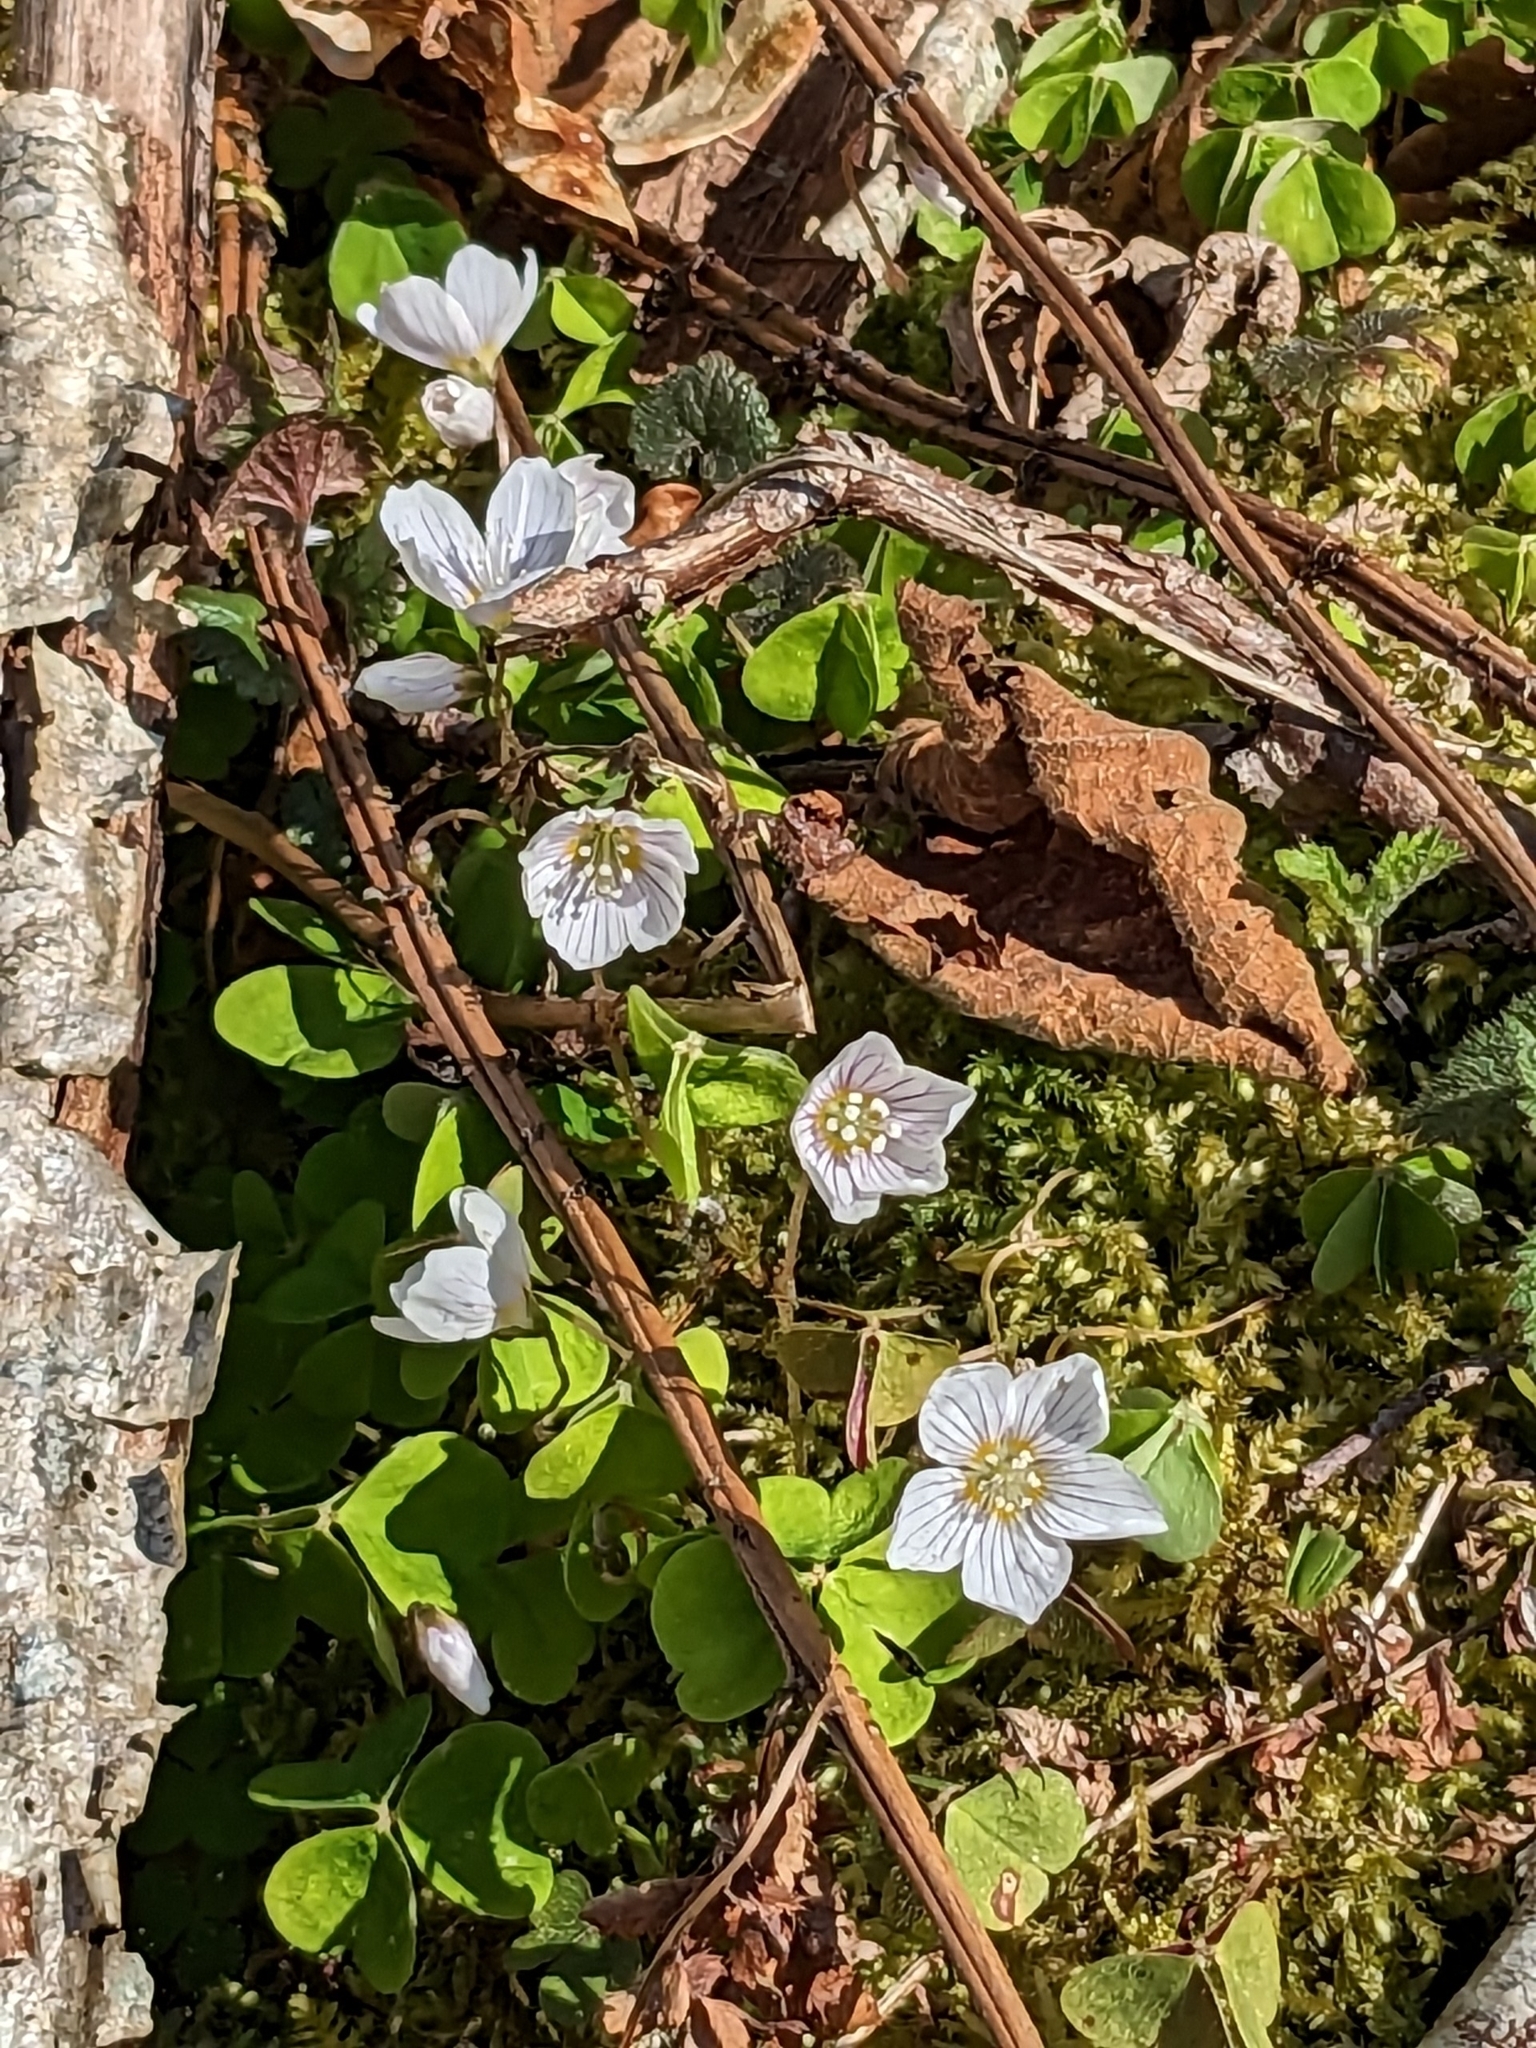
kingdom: Plantae
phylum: Tracheophyta
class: Magnoliopsida
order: Oxalidales
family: Oxalidaceae
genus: Oxalis
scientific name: Oxalis acetosella
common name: Wood-sorrel
